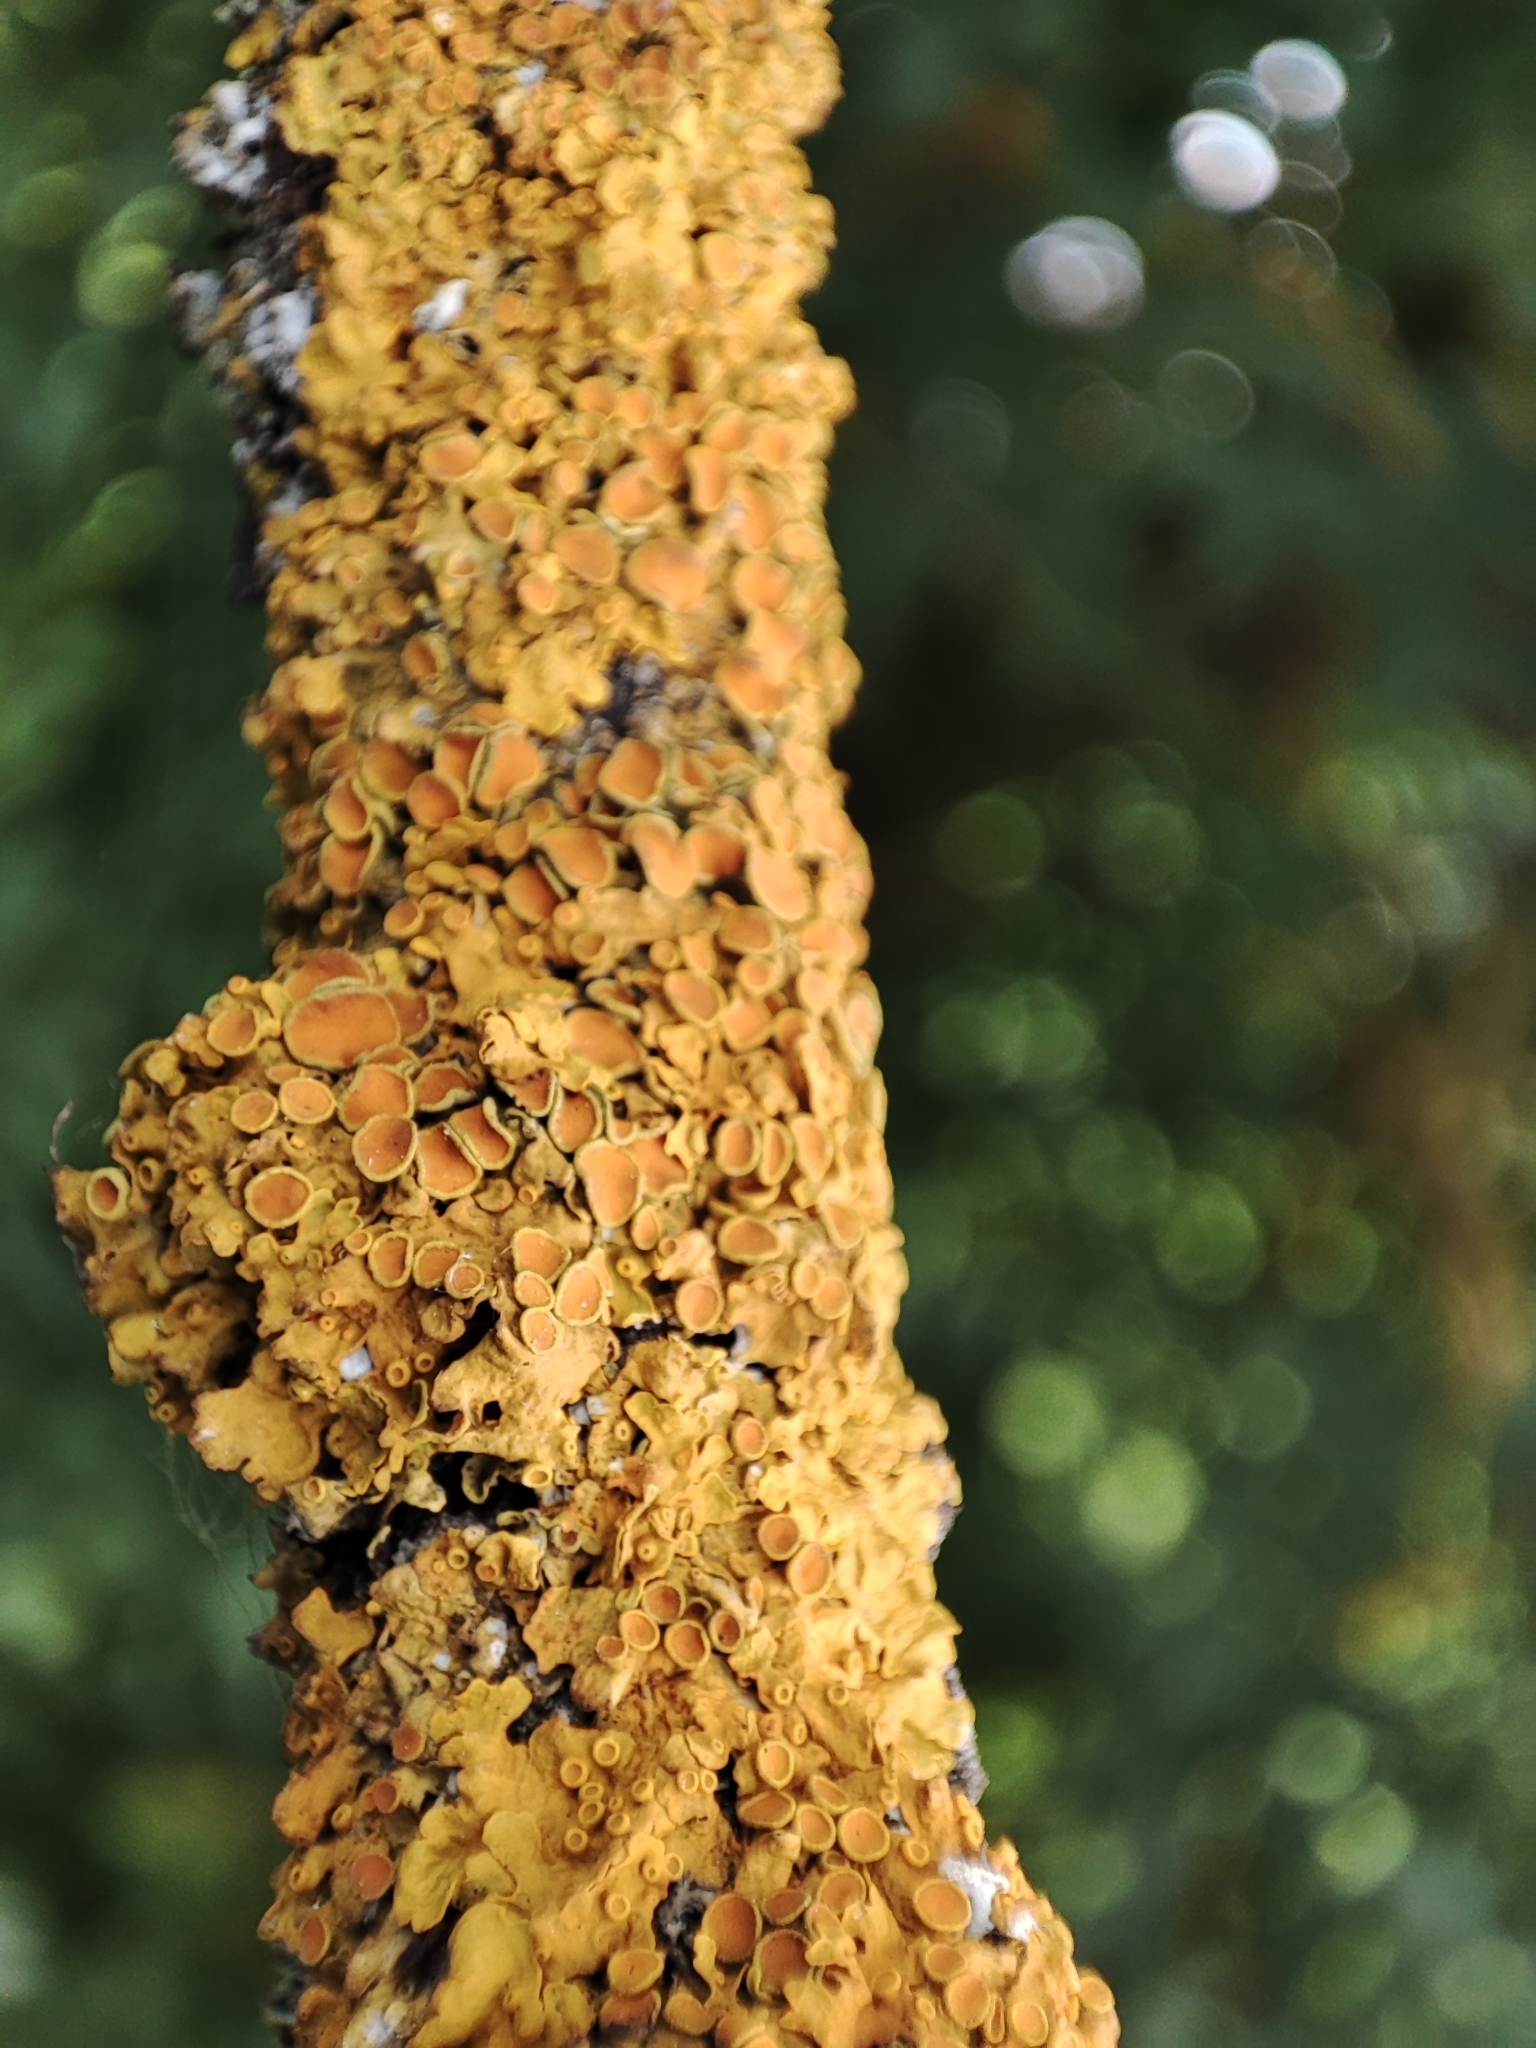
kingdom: Fungi
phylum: Ascomycota
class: Lecanoromycetes
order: Teloschistales
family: Teloschistaceae
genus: Xanthoria
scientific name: Xanthoria parietina
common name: Common orange lichen
